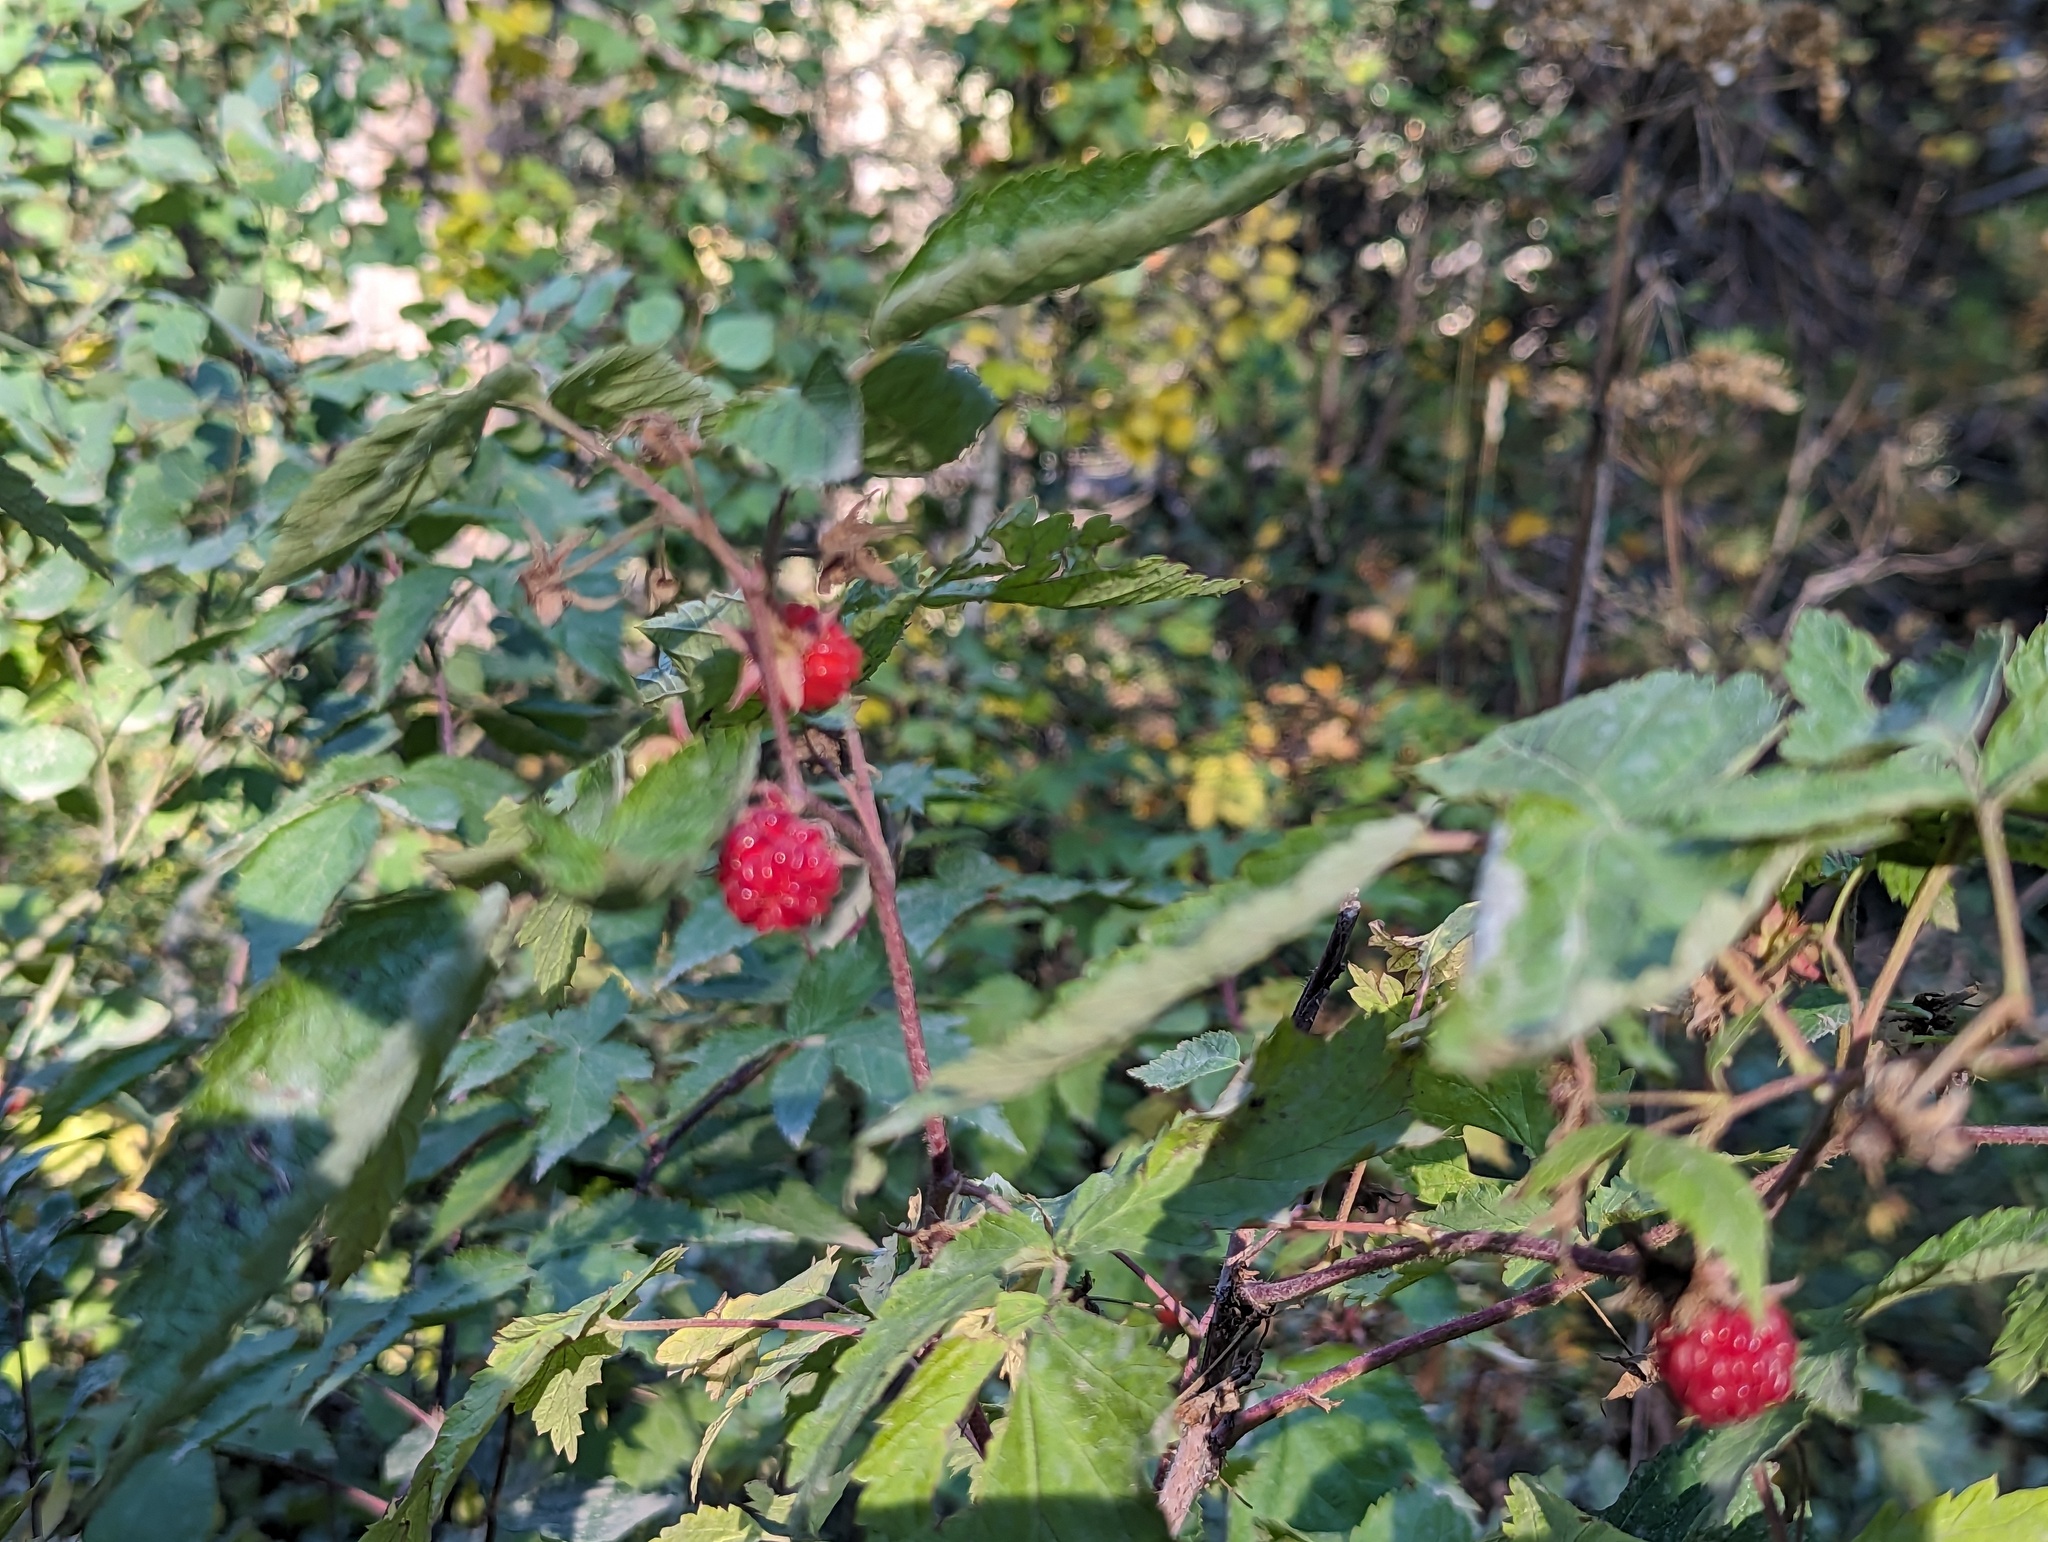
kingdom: Plantae
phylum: Tracheophyta
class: Magnoliopsida
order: Rosales
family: Rosaceae
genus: Rubus
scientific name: Rubus idaeus
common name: Raspberry
